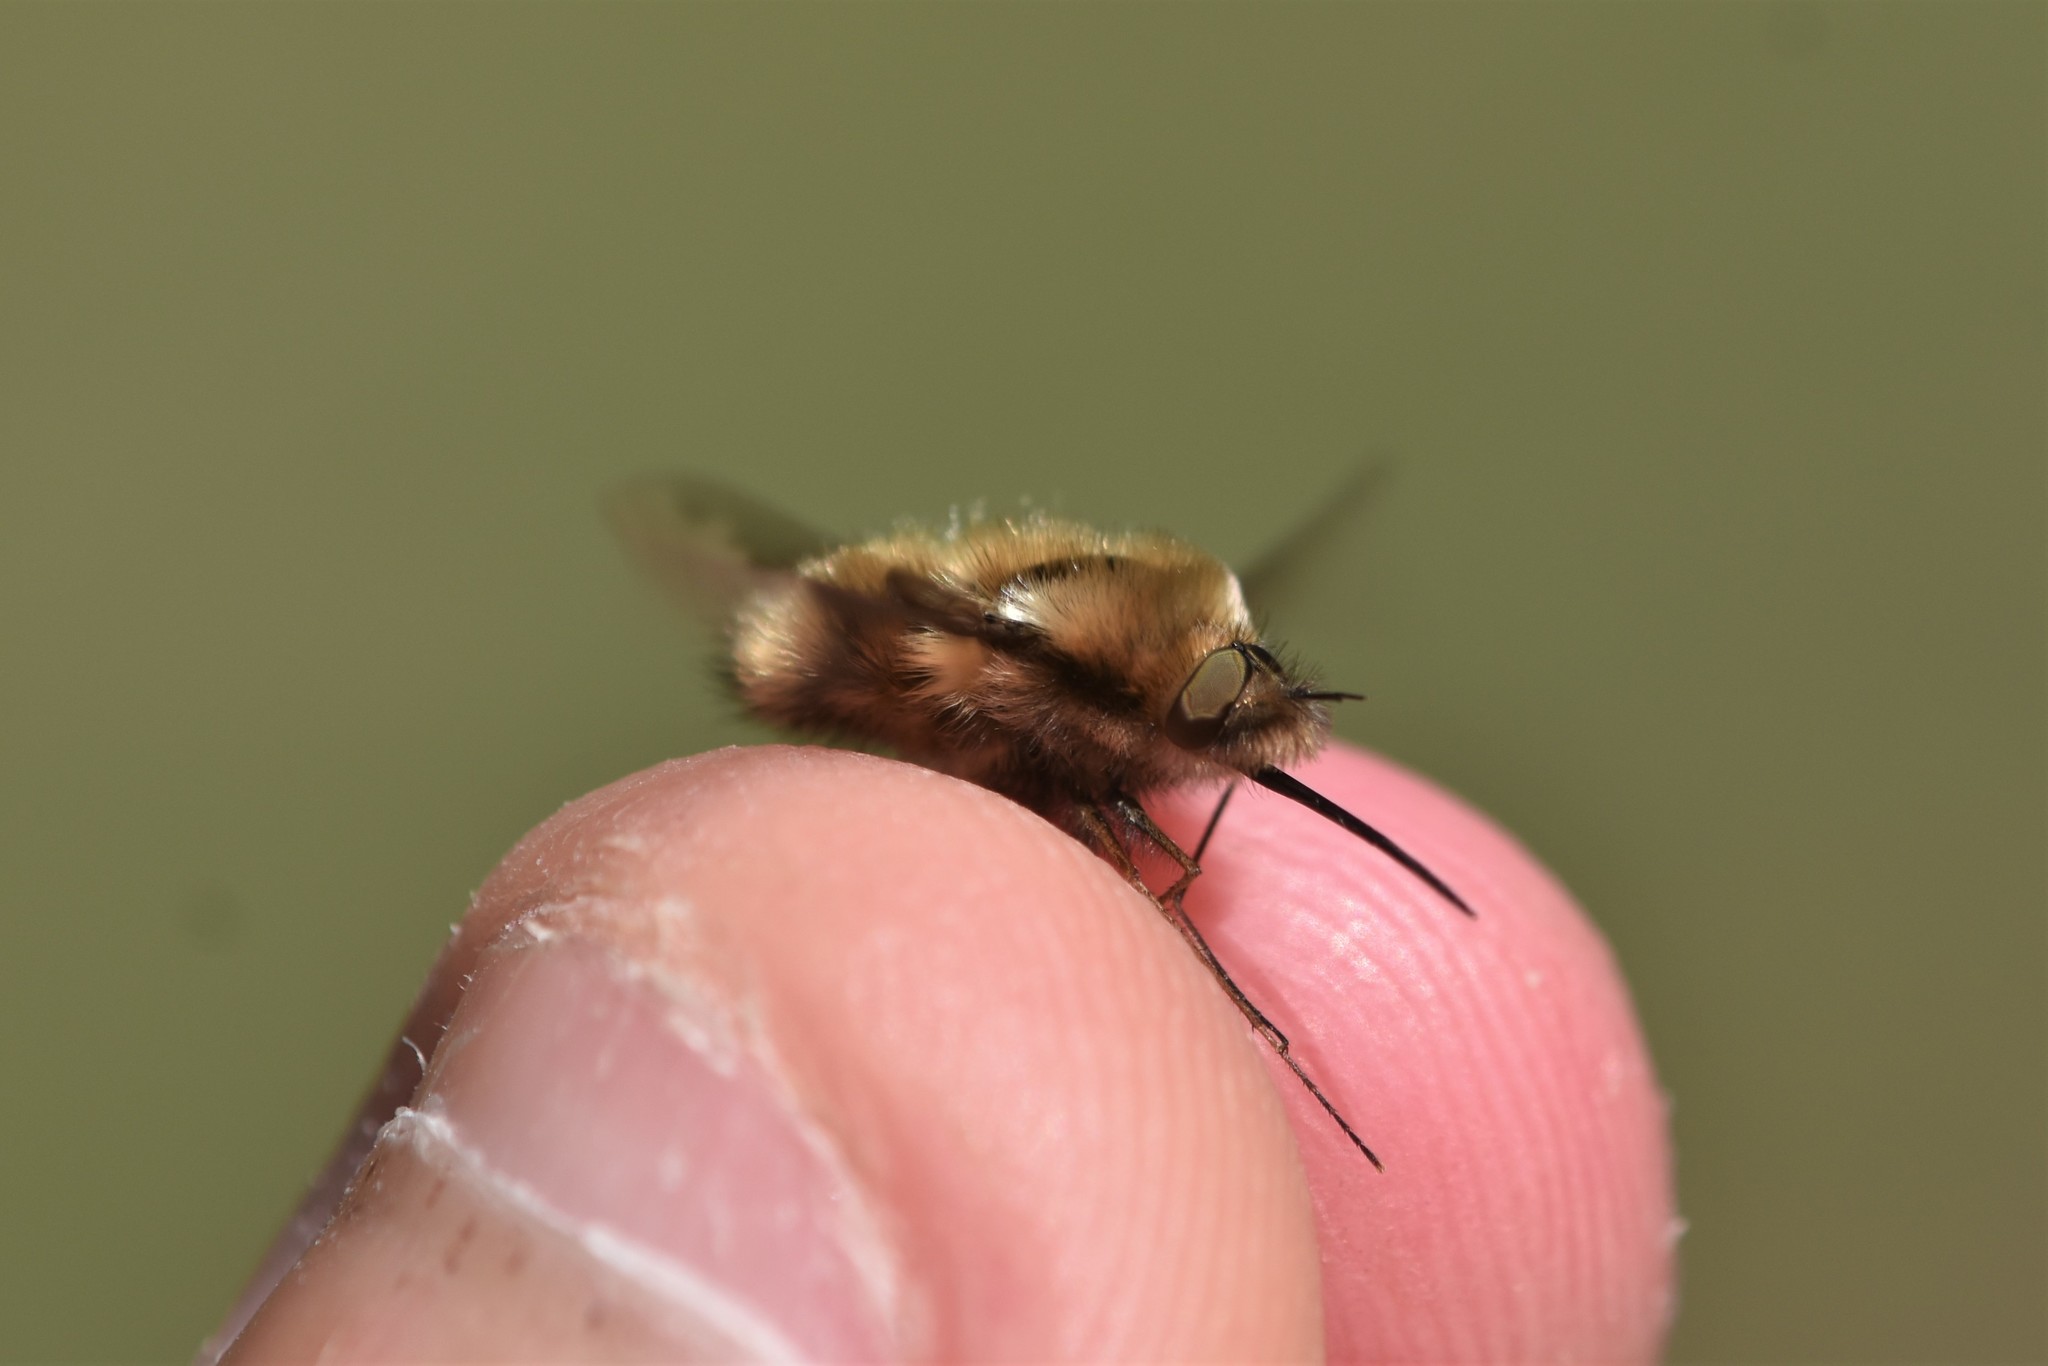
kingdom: Animalia
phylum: Arthropoda
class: Insecta
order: Diptera
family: Bombyliidae
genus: Bombylius
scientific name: Bombylius major
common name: Bee fly
